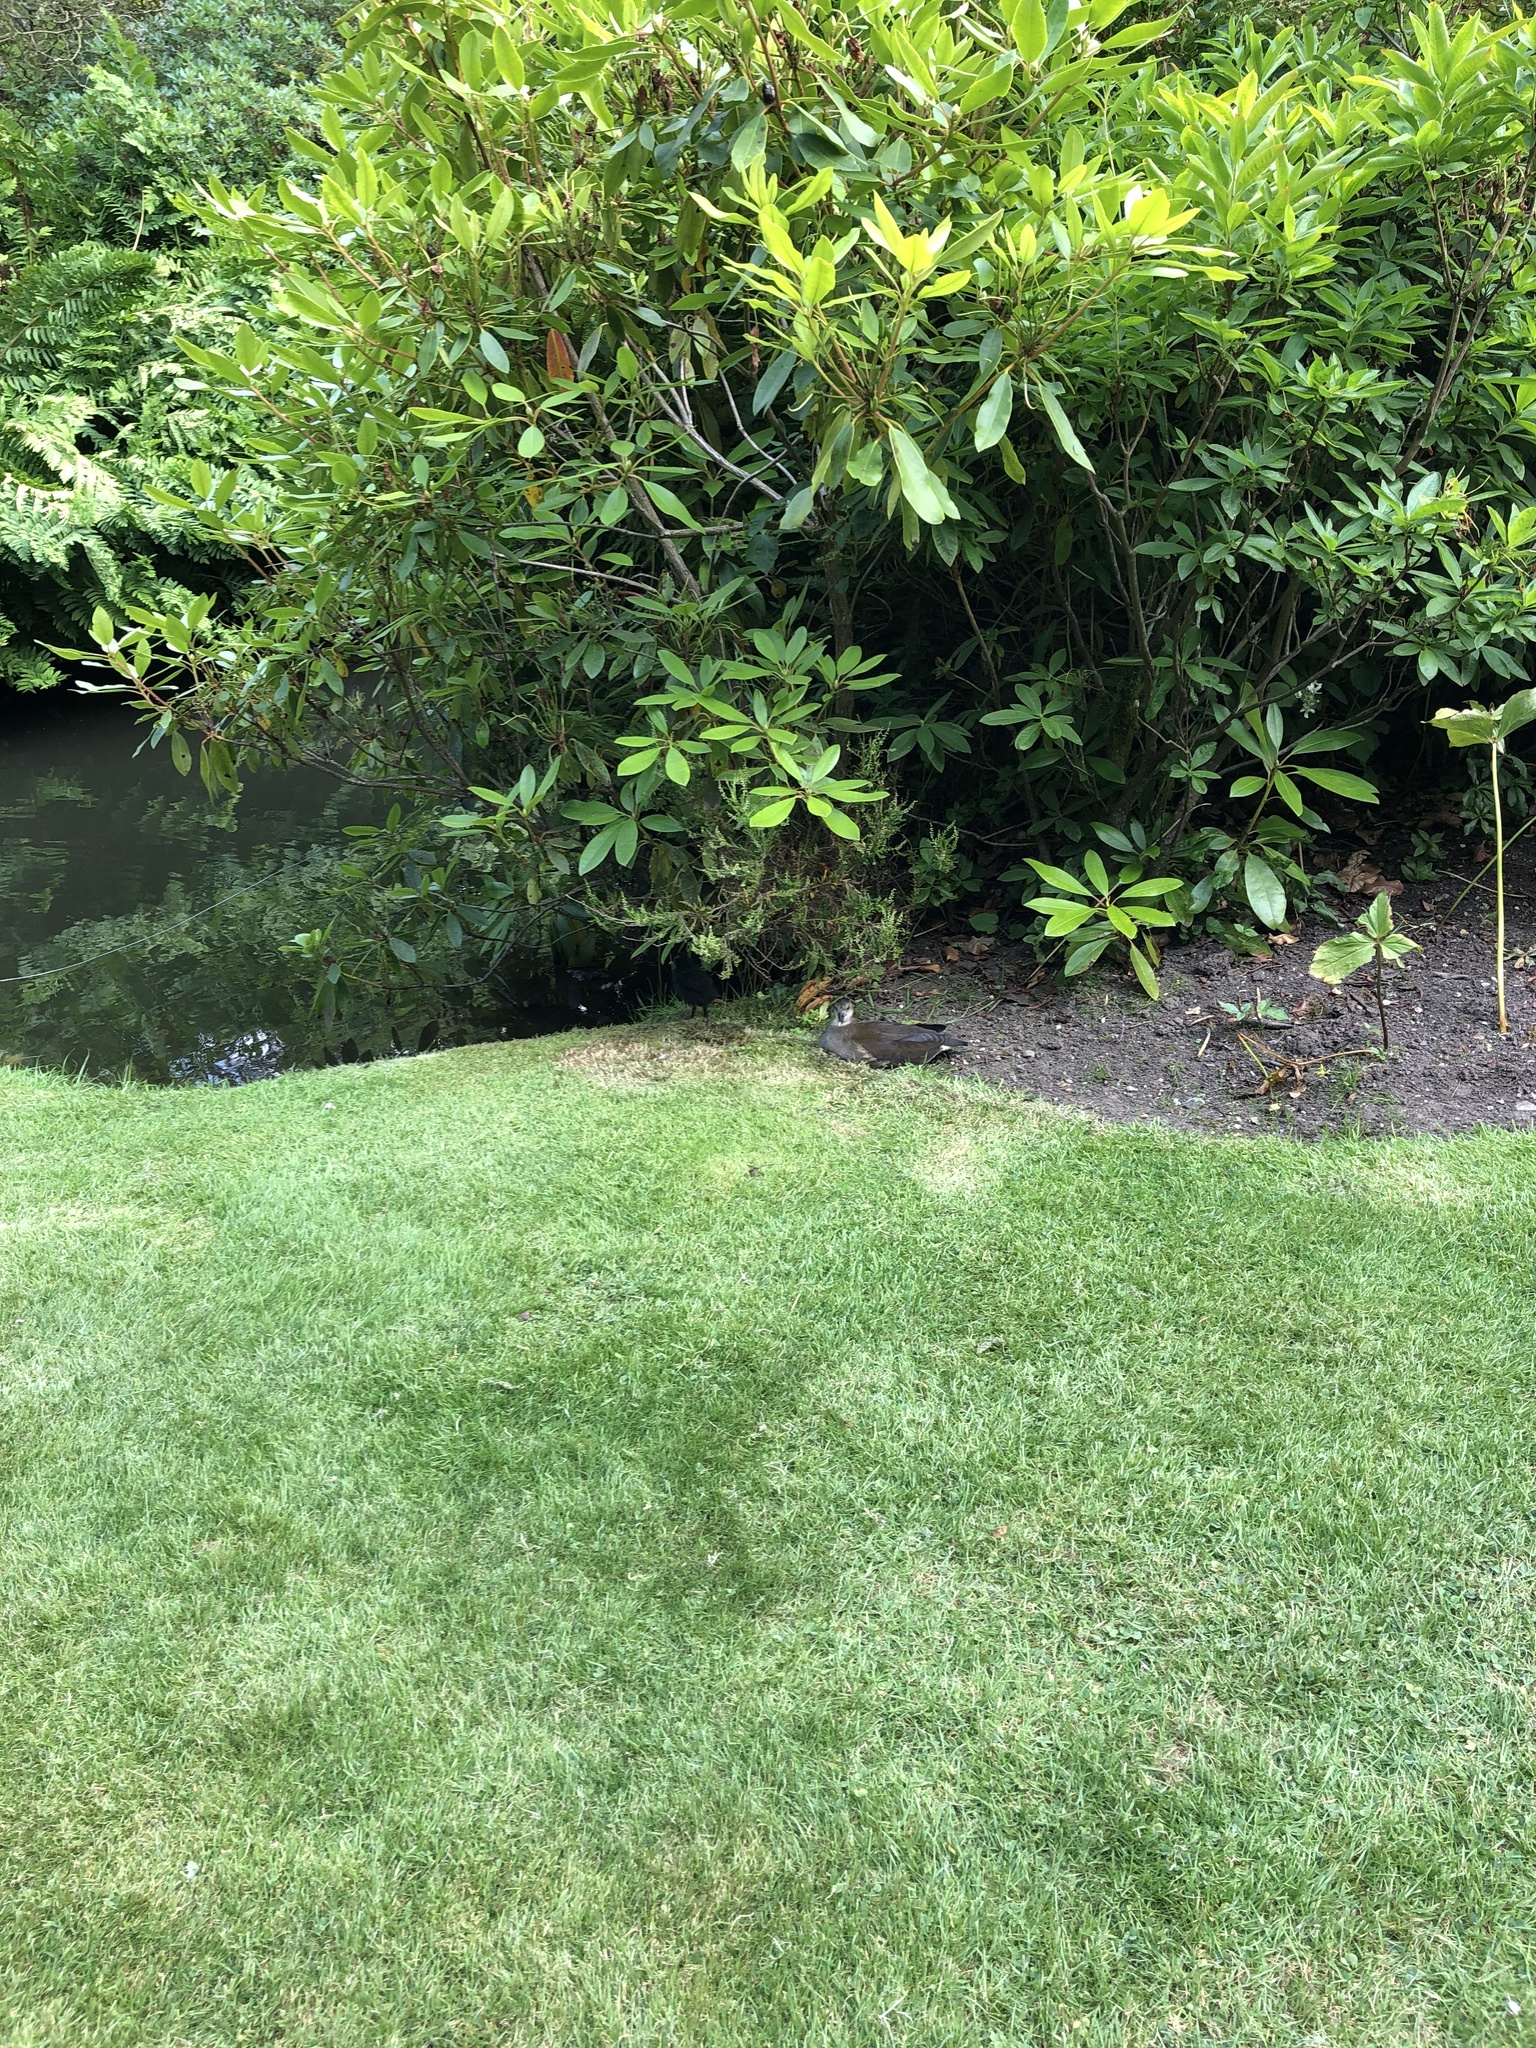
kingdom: Animalia
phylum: Chordata
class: Aves
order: Gruiformes
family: Rallidae
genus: Gallinula
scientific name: Gallinula chloropus
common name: Common moorhen
